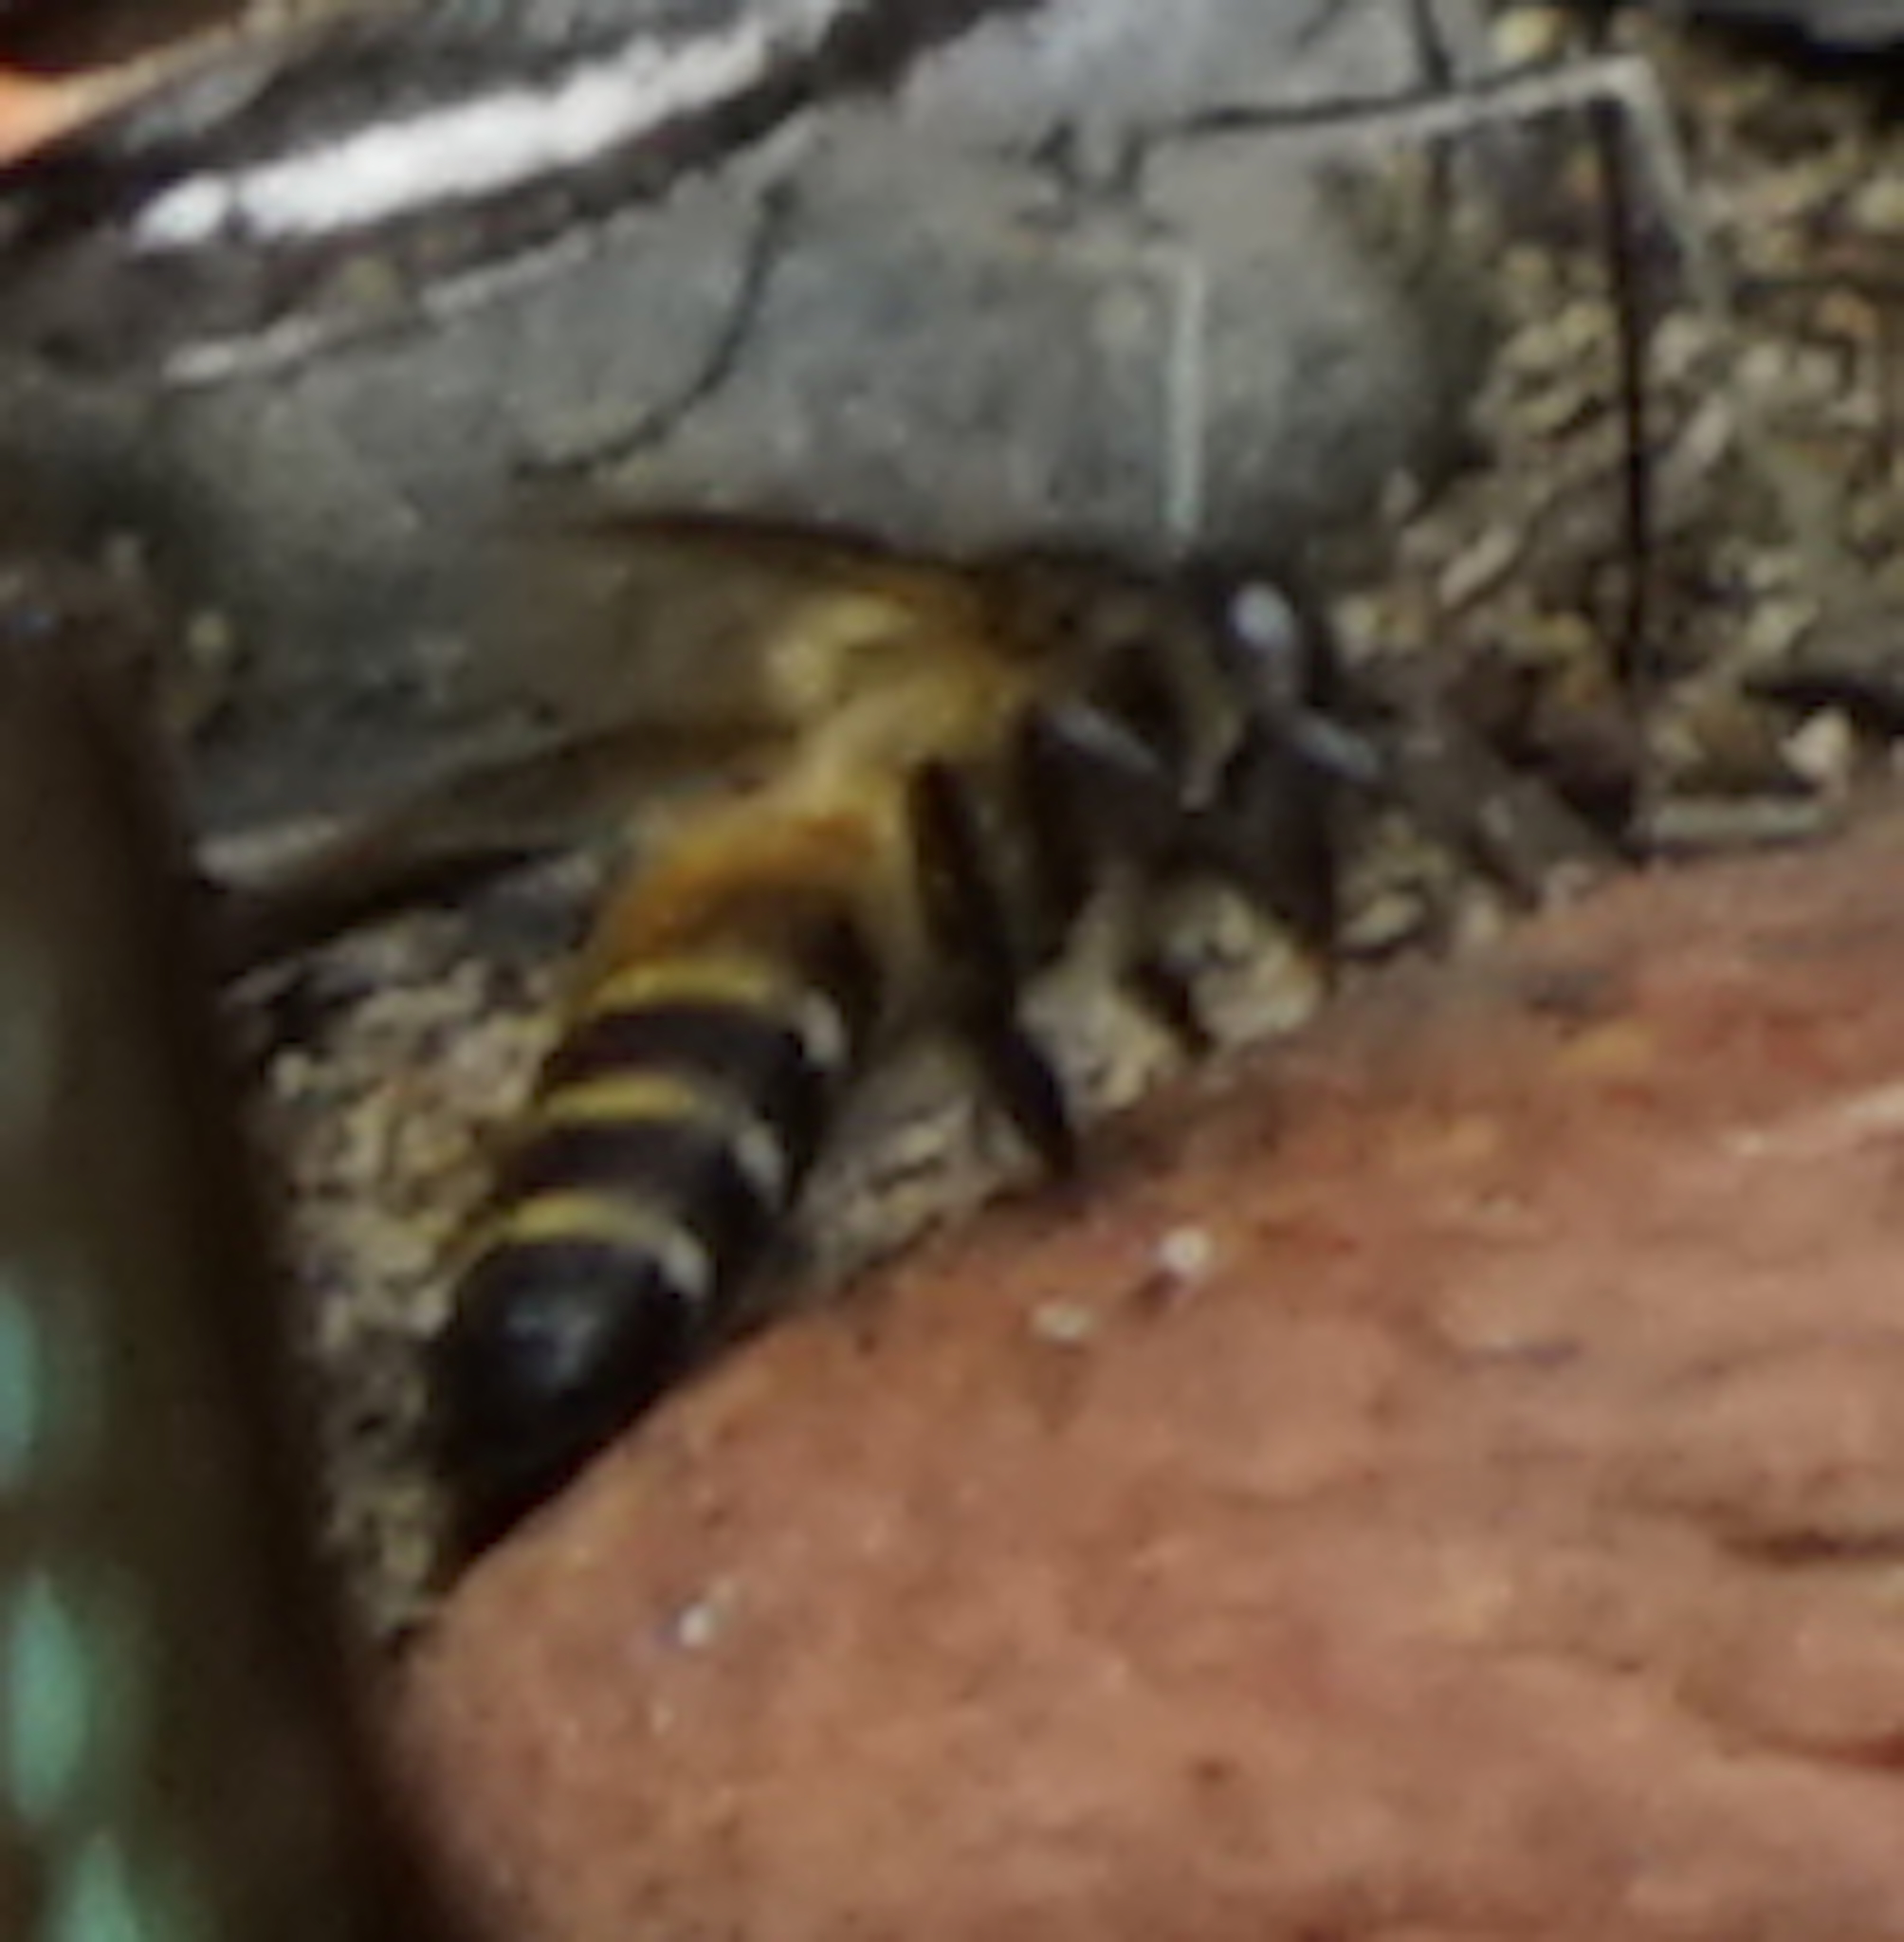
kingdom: Animalia
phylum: Arthropoda
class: Insecta
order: Hymenoptera
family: Apidae
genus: Apis
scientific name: Apis dorsata
